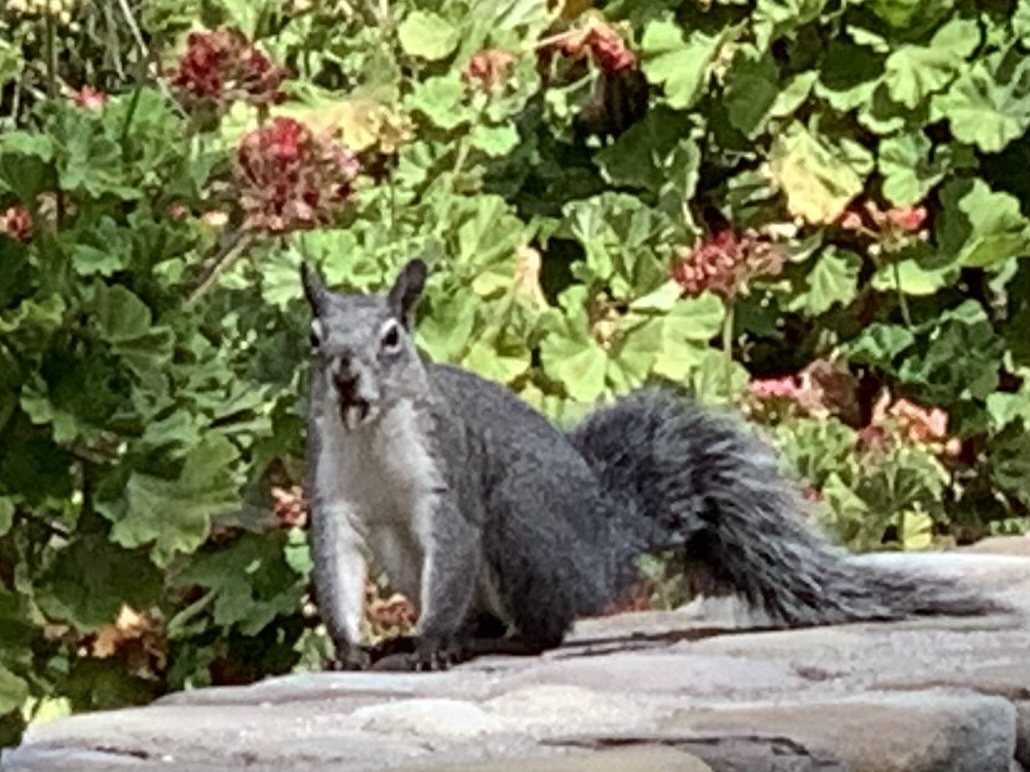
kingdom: Animalia
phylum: Chordata
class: Mammalia
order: Rodentia
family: Sciuridae
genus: Sciurus
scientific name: Sciurus griseus
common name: Western gray squirrel
